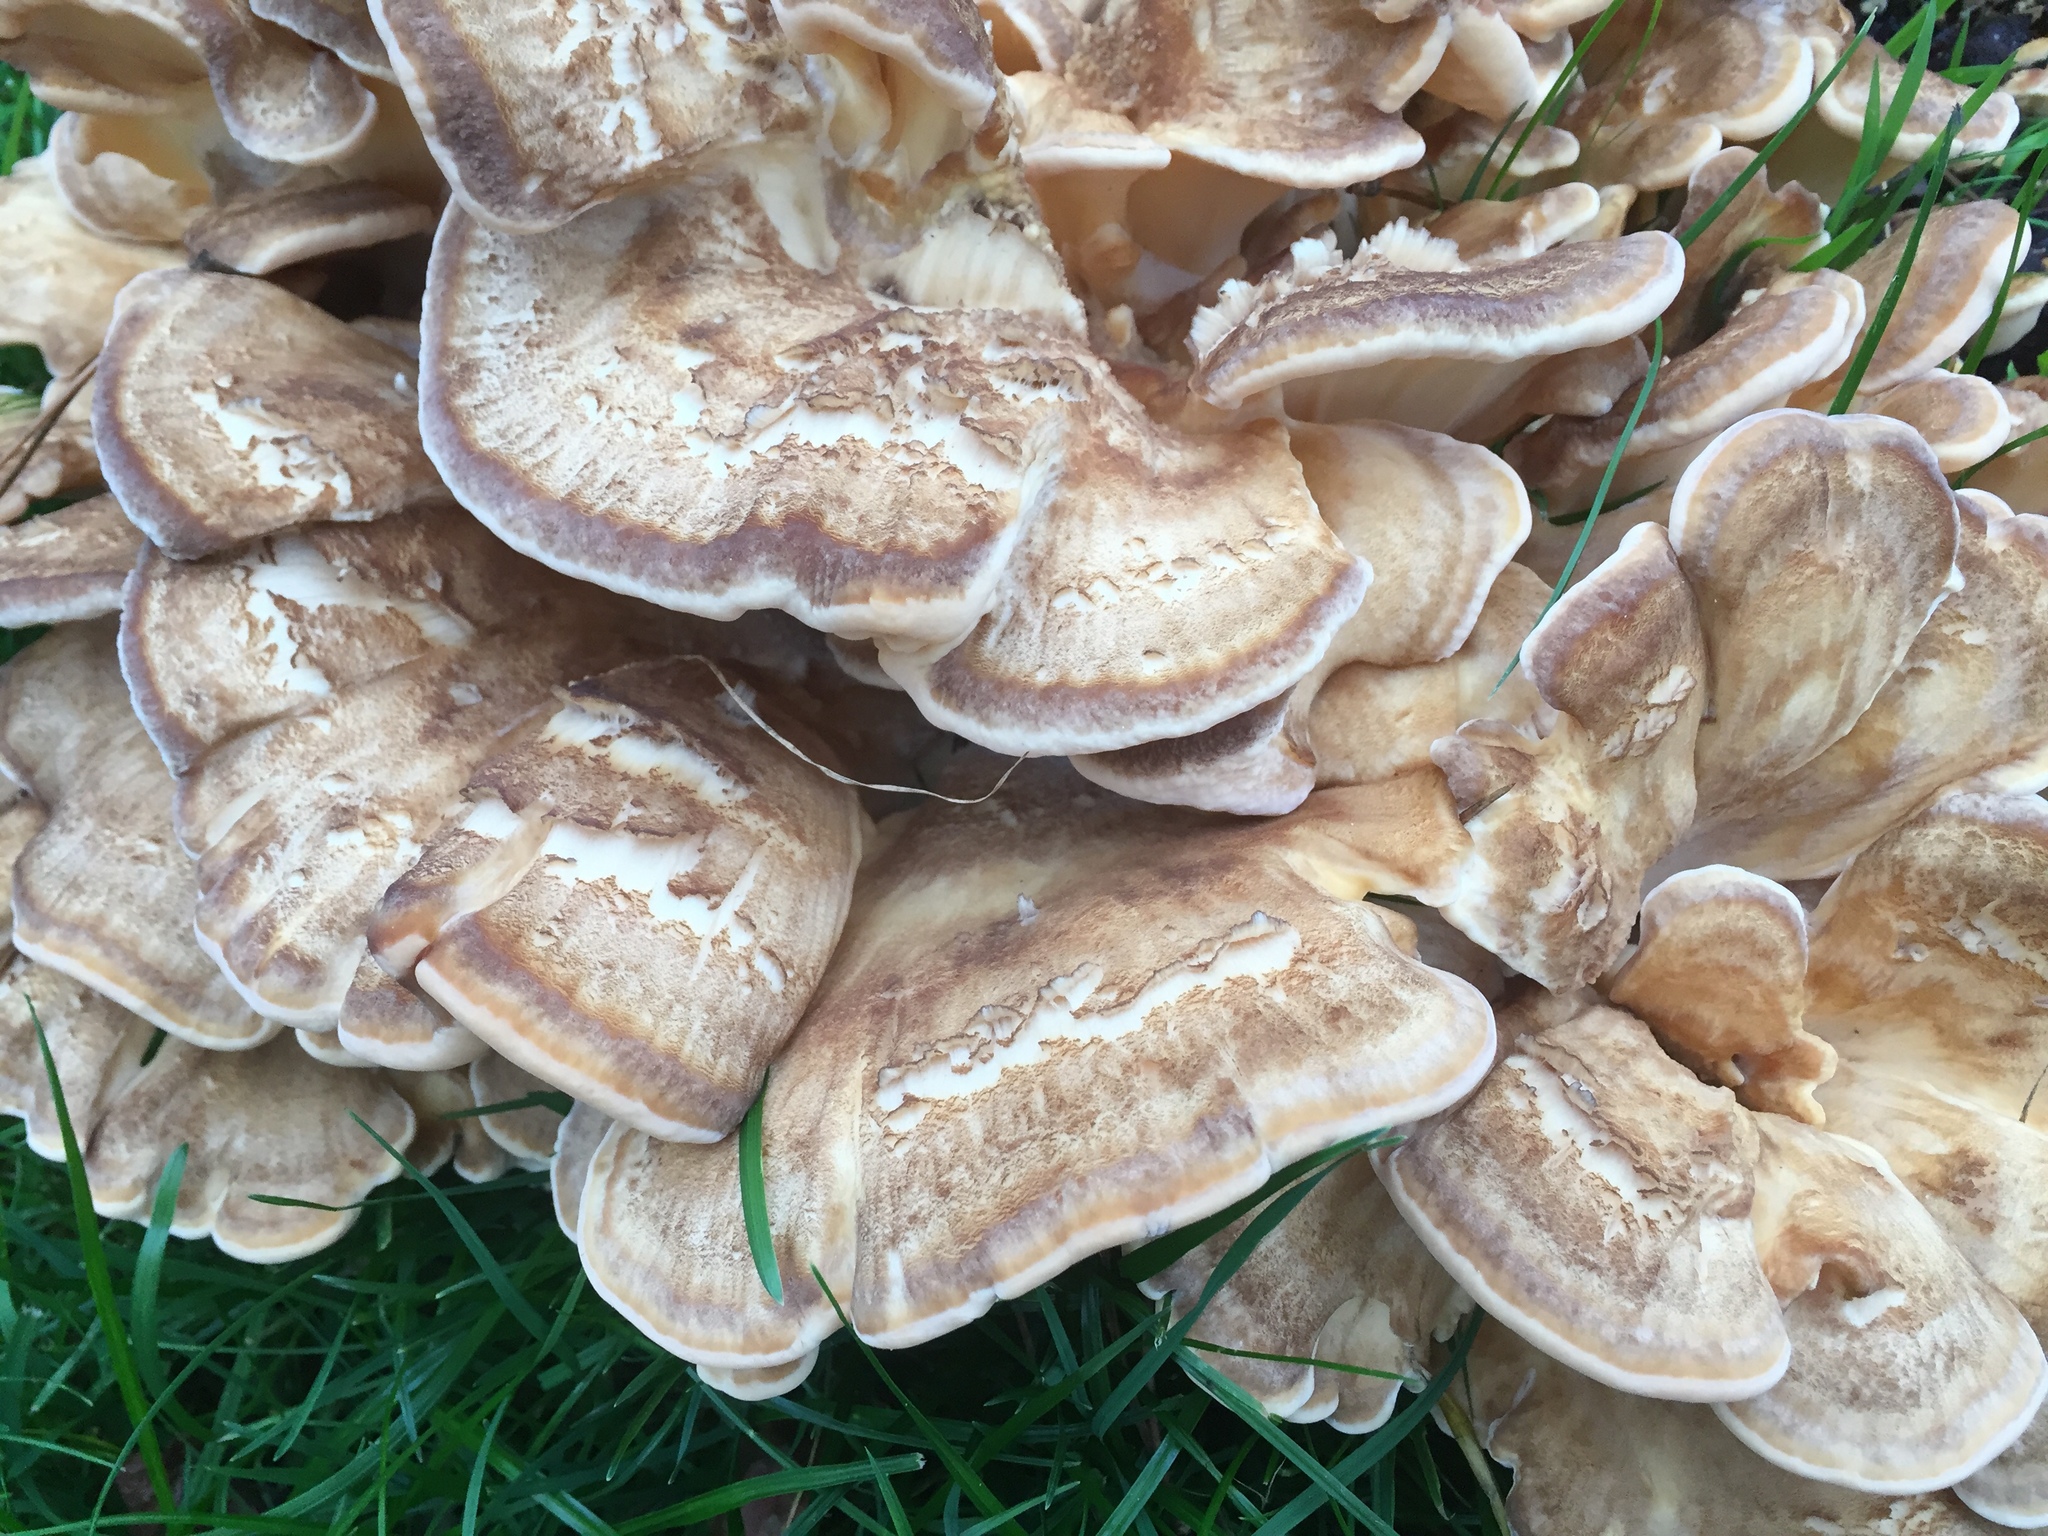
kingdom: Fungi
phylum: Basidiomycota
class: Agaricomycetes
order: Polyporales
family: Meripilaceae
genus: Meripilus
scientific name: Meripilus giganteus
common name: Giant polypore
